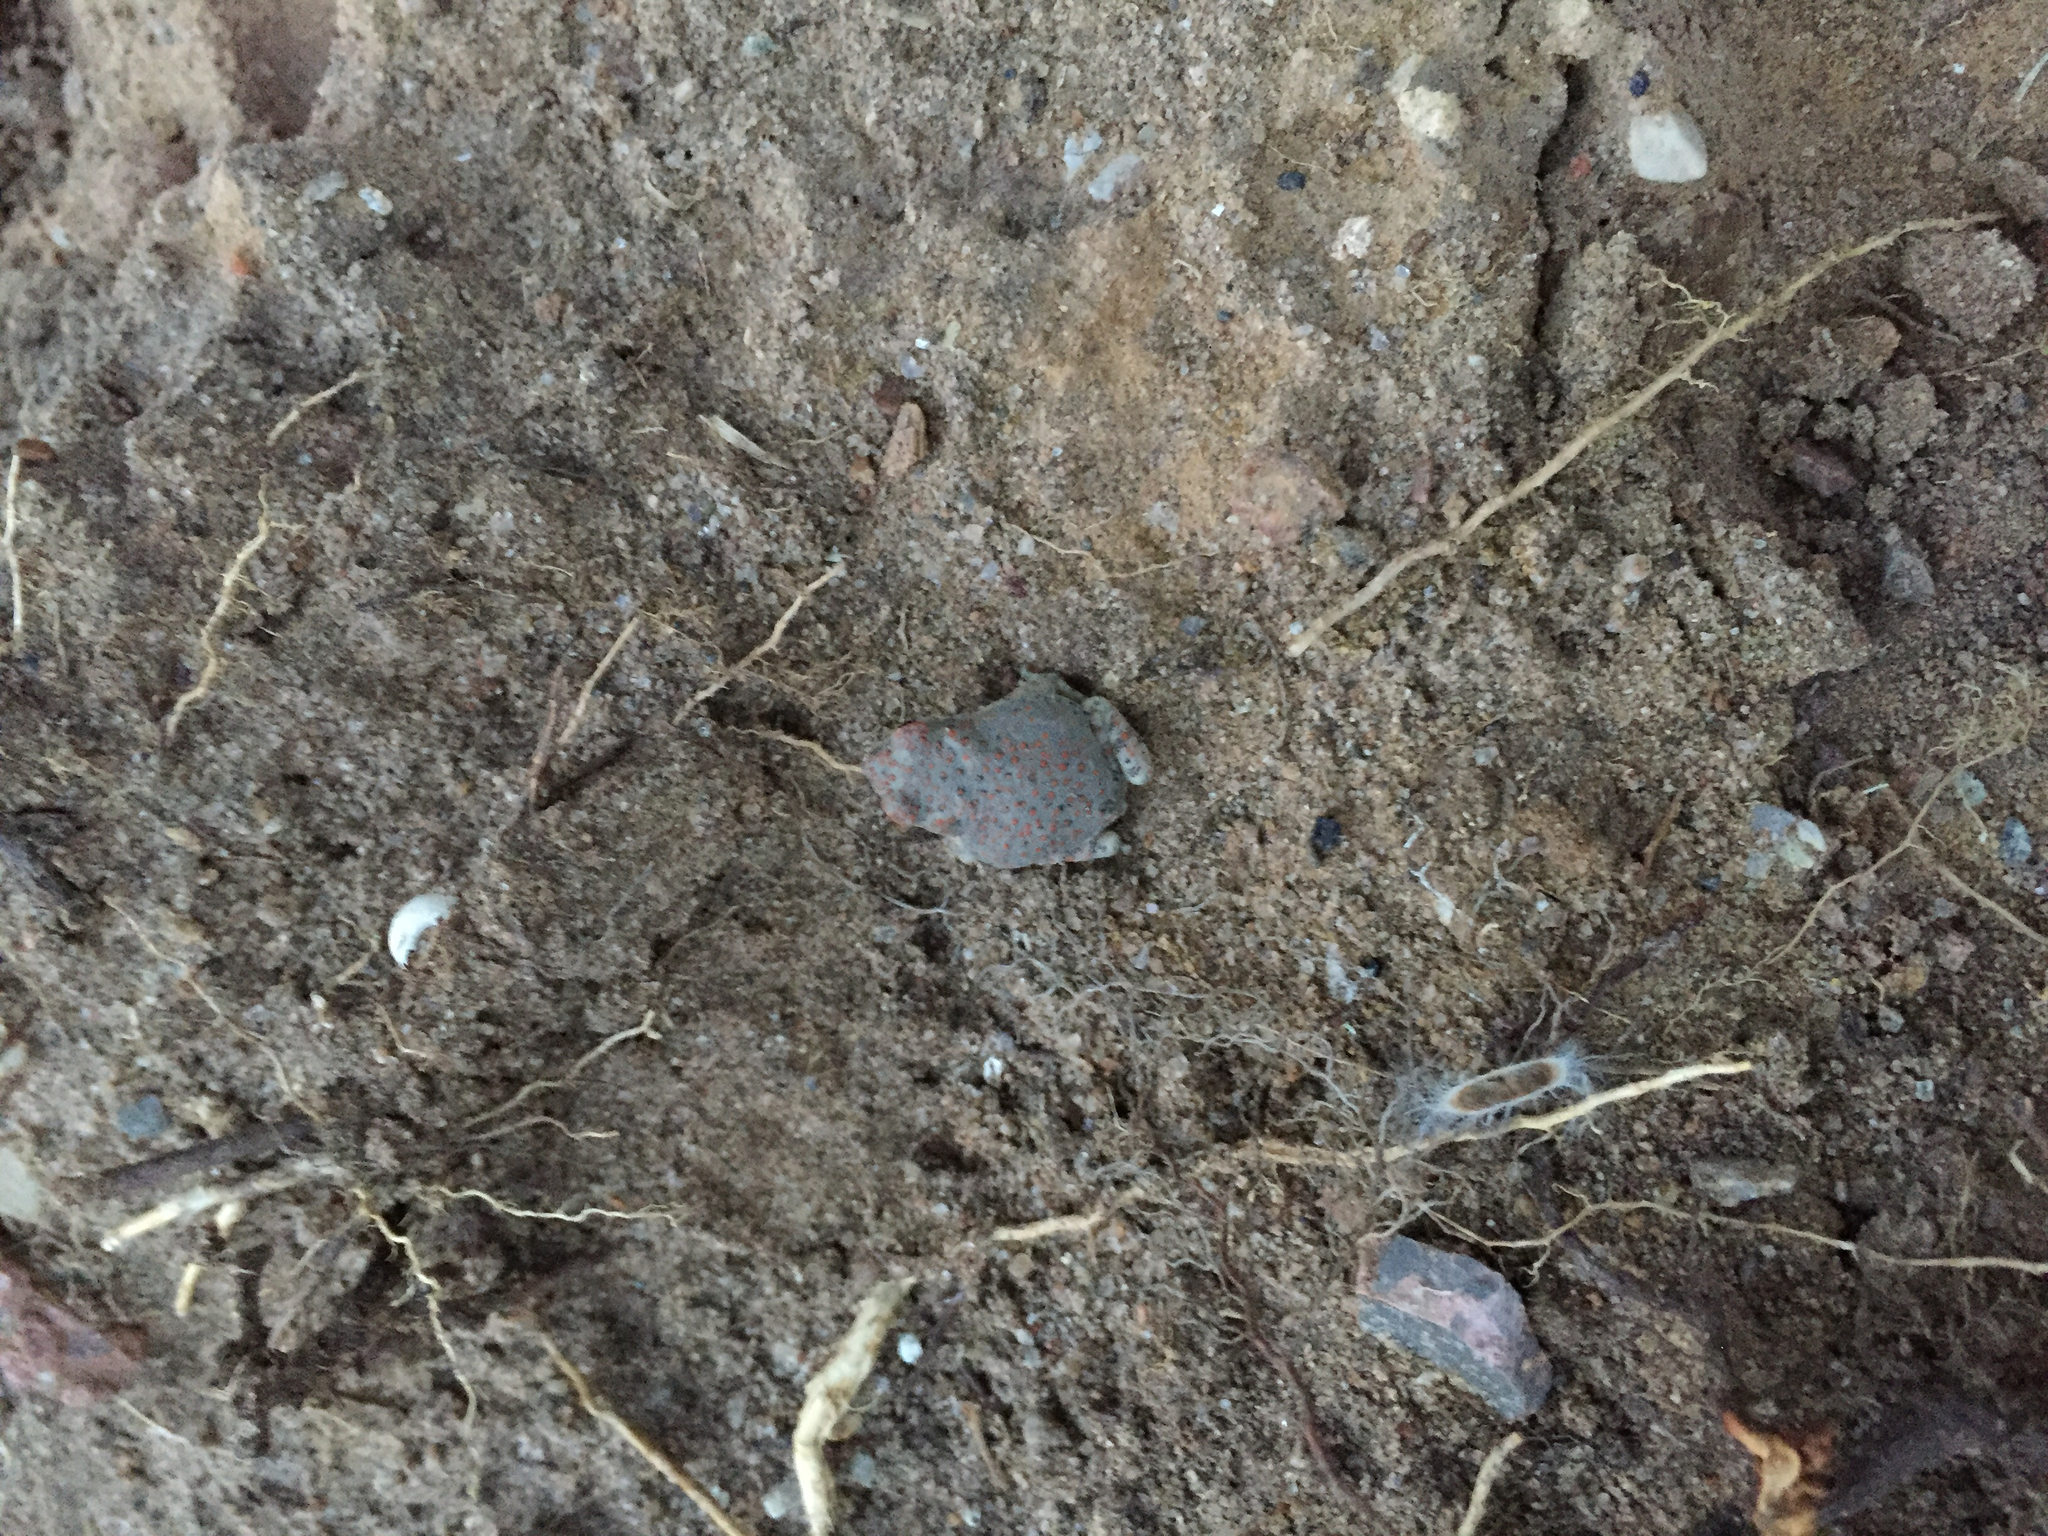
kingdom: Animalia
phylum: Chordata
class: Amphibia
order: Anura
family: Bufonidae
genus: Anaxyrus
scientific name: Anaxyrus punctatus
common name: Red-spotted toad
